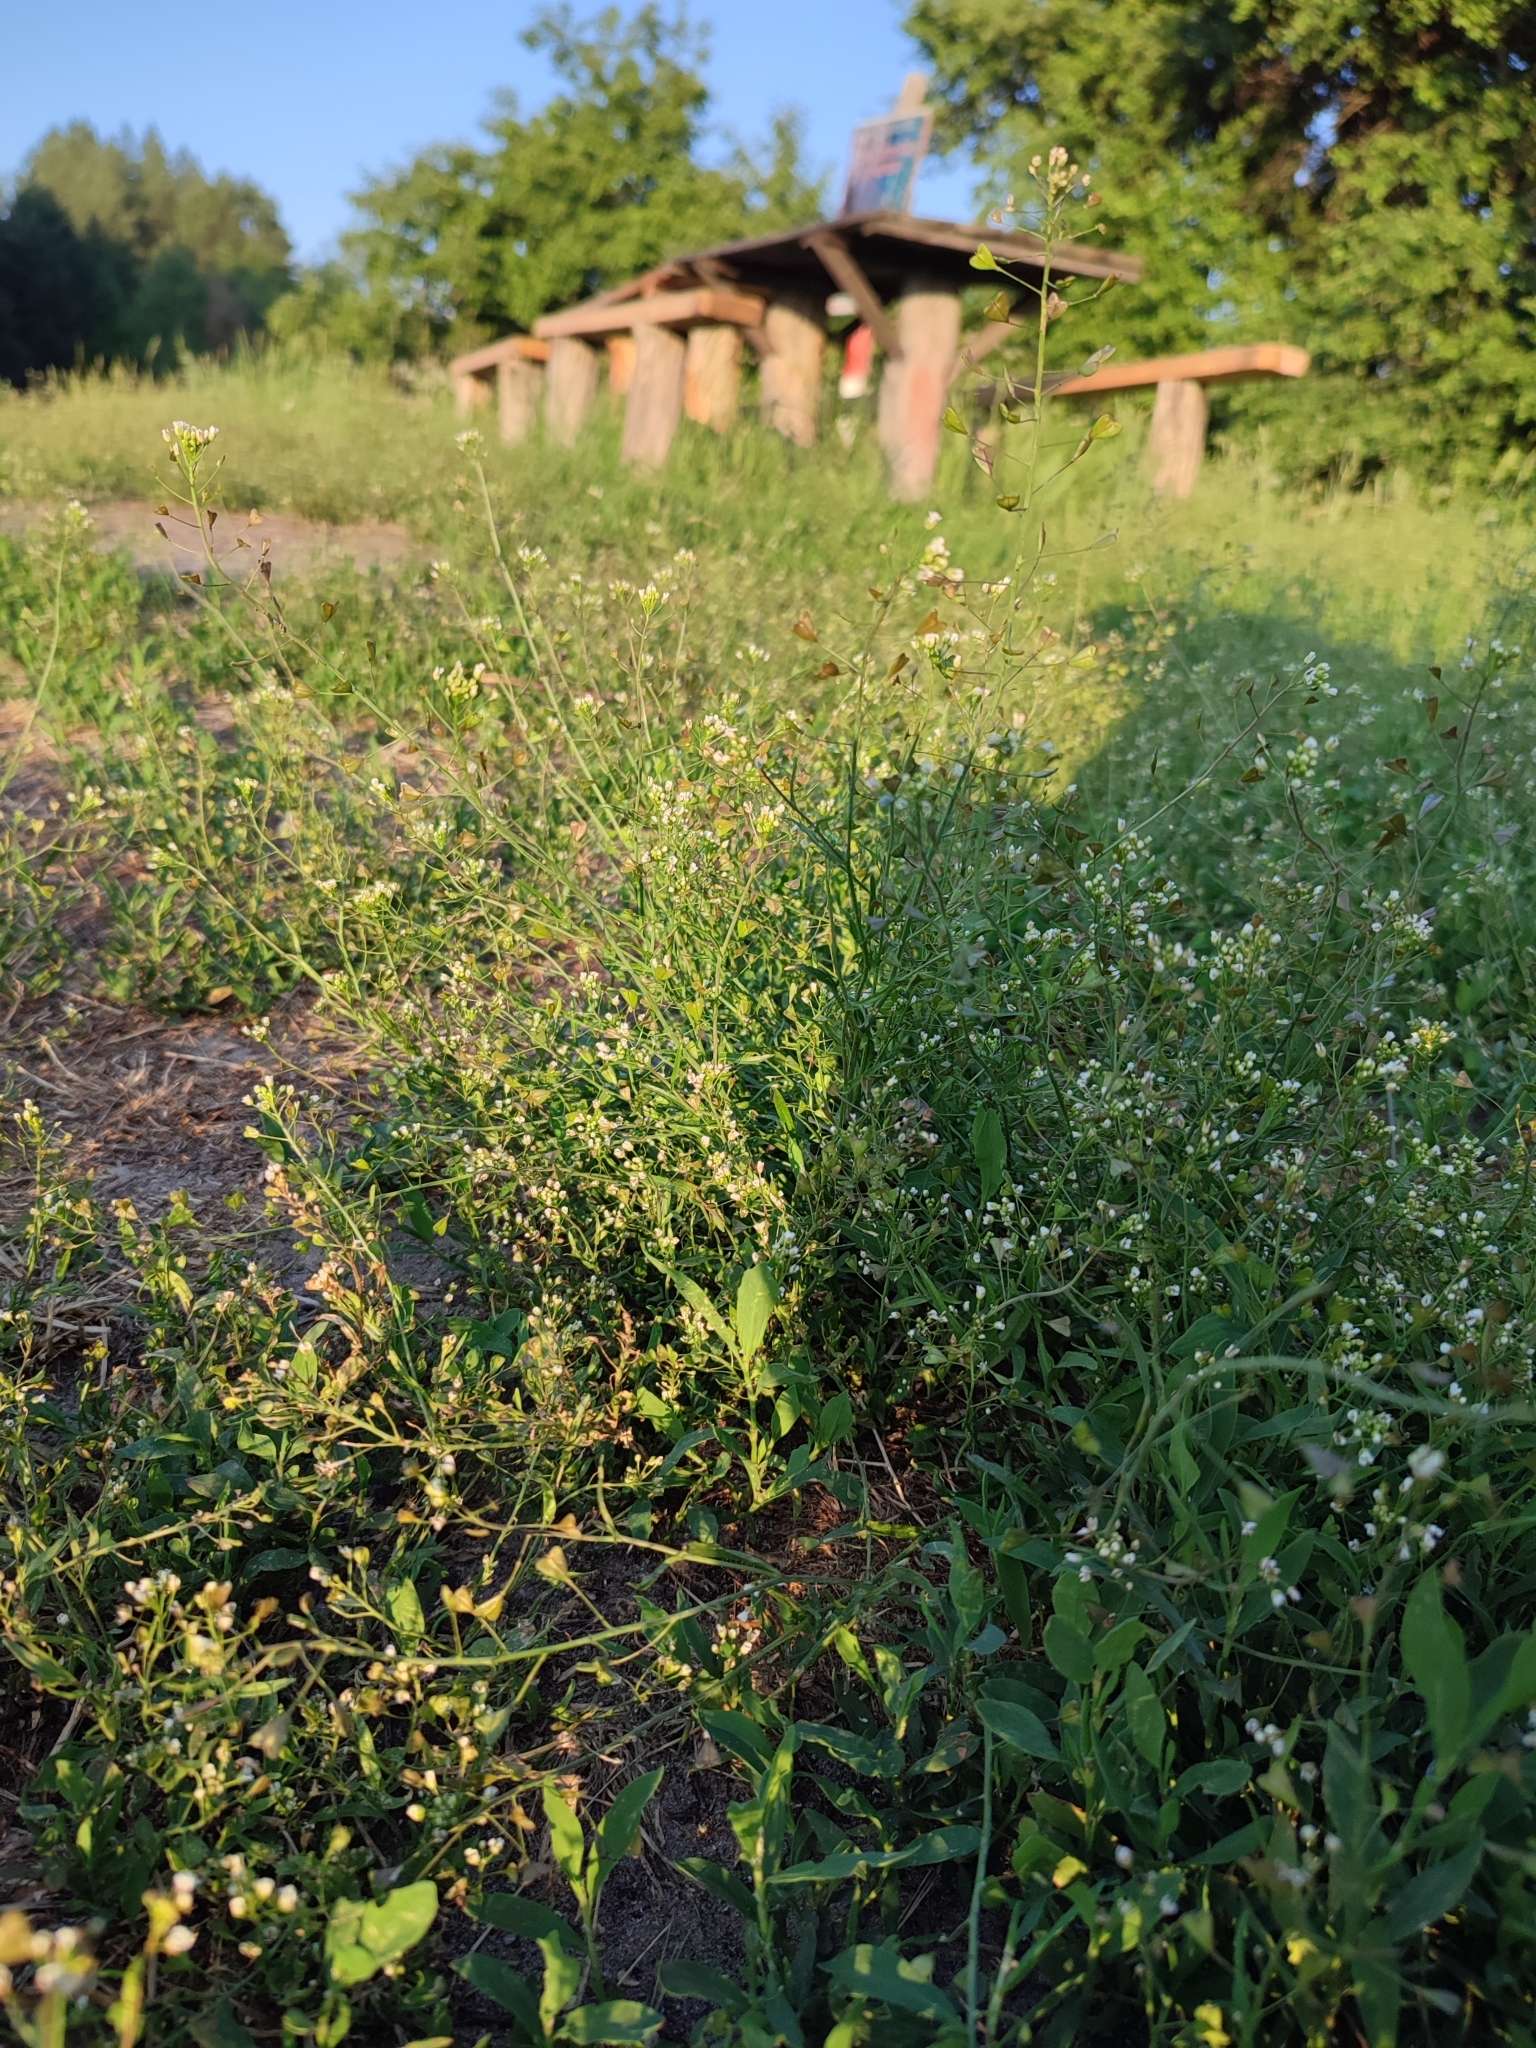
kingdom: Plantae
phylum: Tracheophyta
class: Magnoliopsida
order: Brassicales
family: Brassicaceae
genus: Capsella
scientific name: Capsella bursa-pastoris
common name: Shepherd's purse
